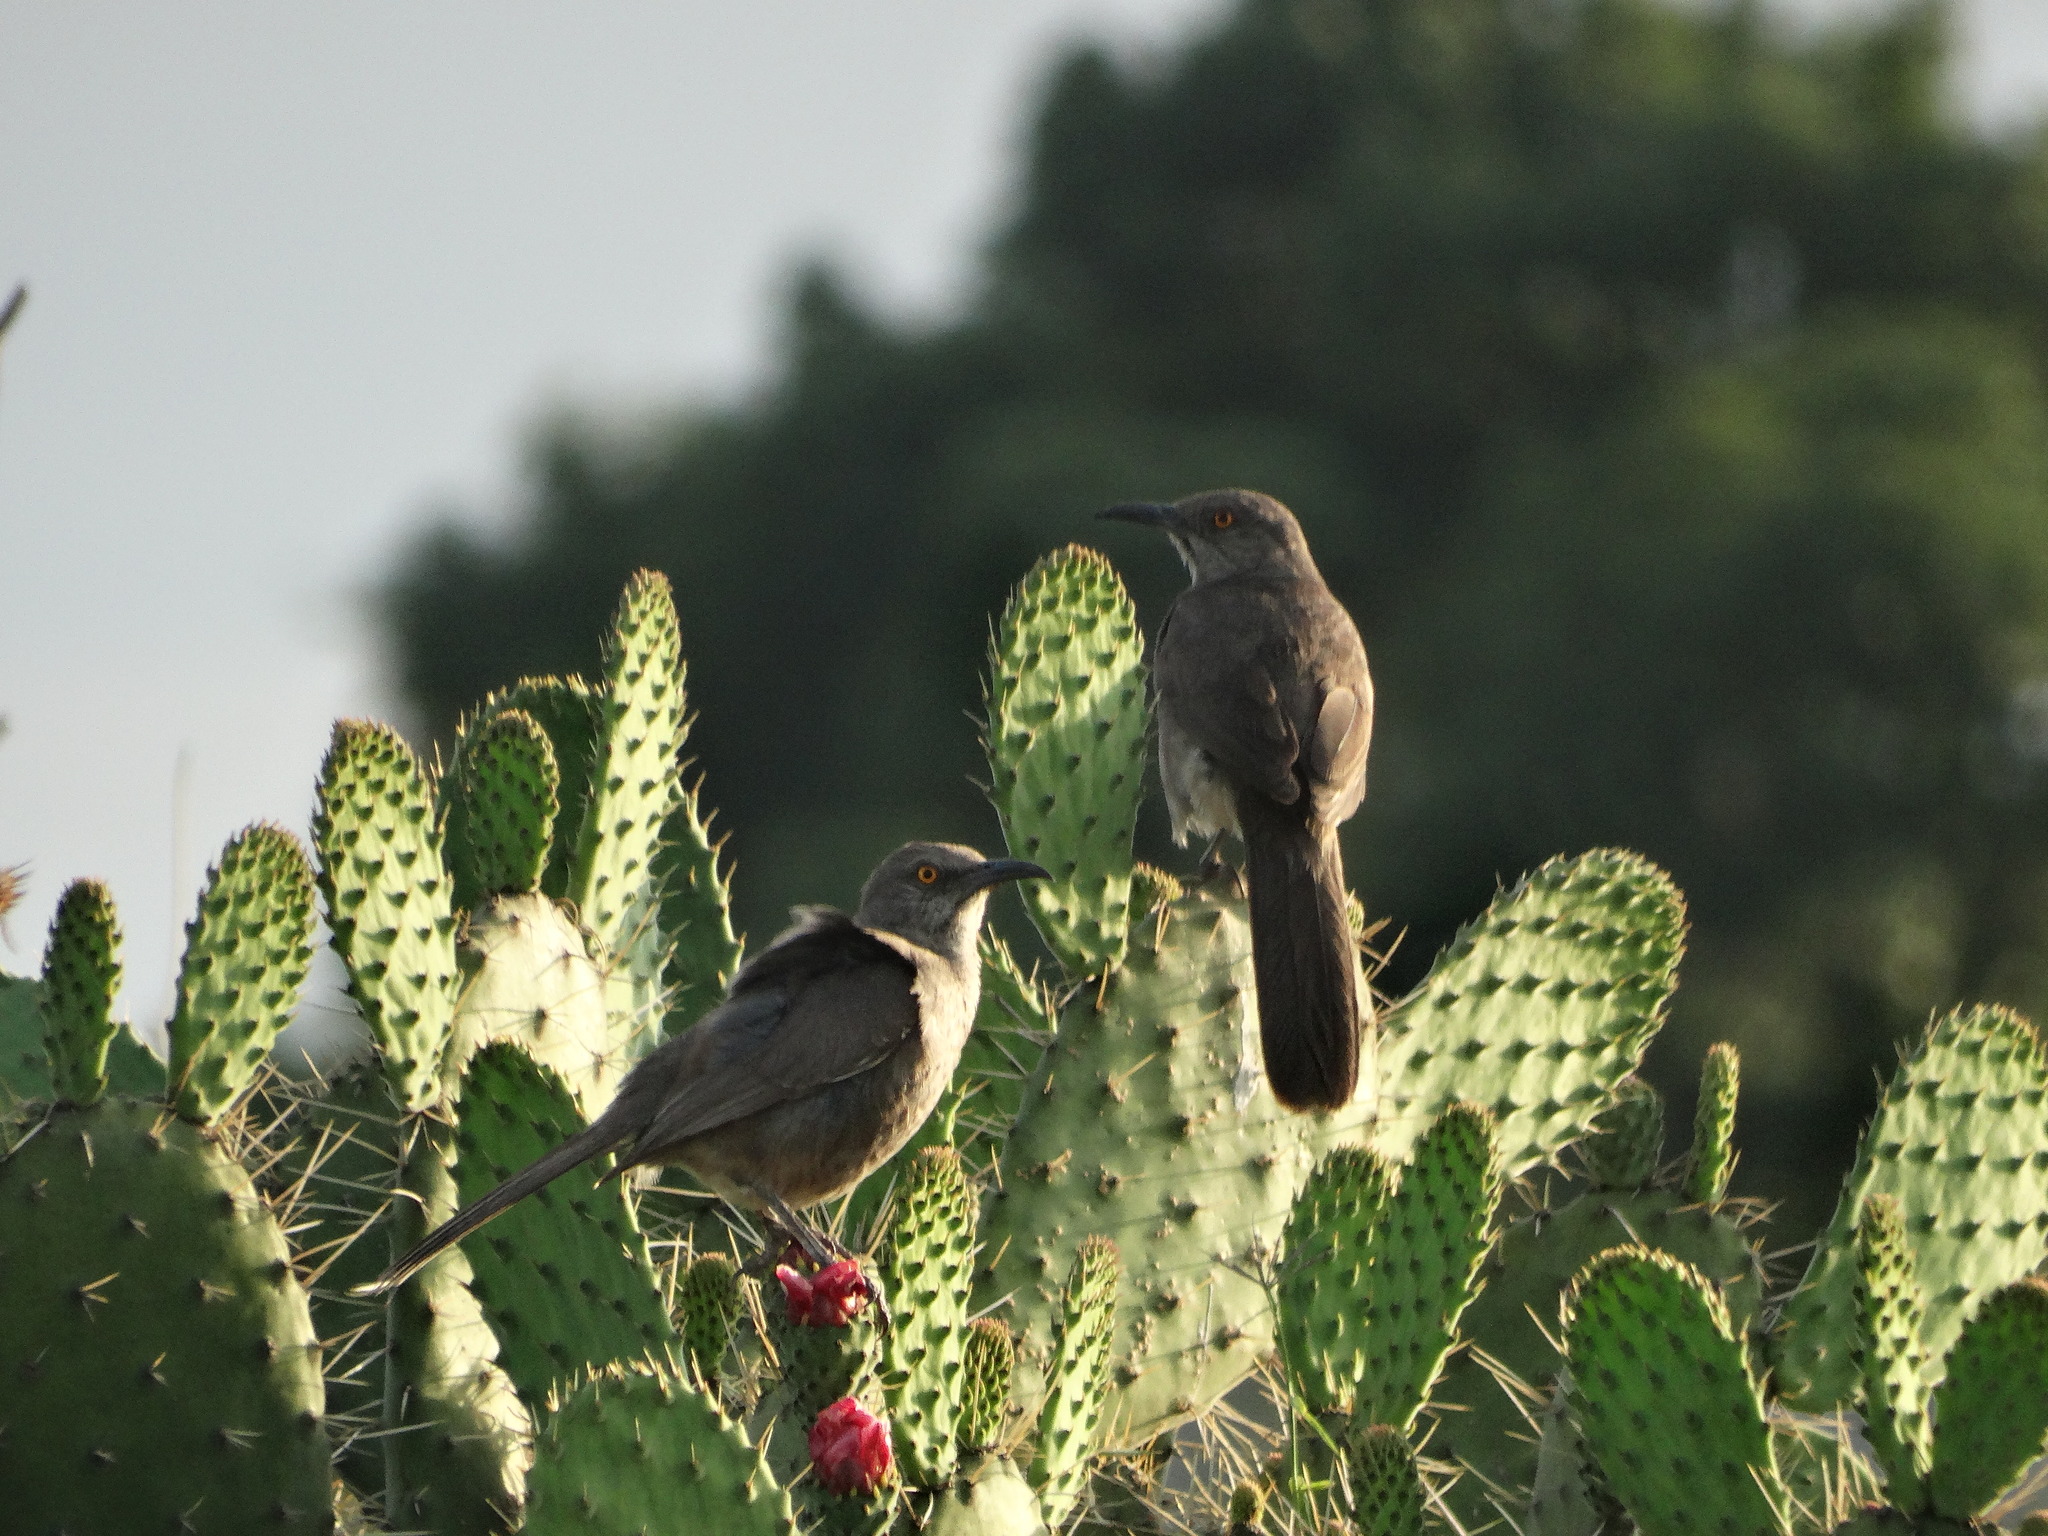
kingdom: Animalia
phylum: Chordata
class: Aves
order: Passeriformes
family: Mimidae
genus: Toxostoma
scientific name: Toxostoma curvirostre
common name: Curve-billed thrasher
